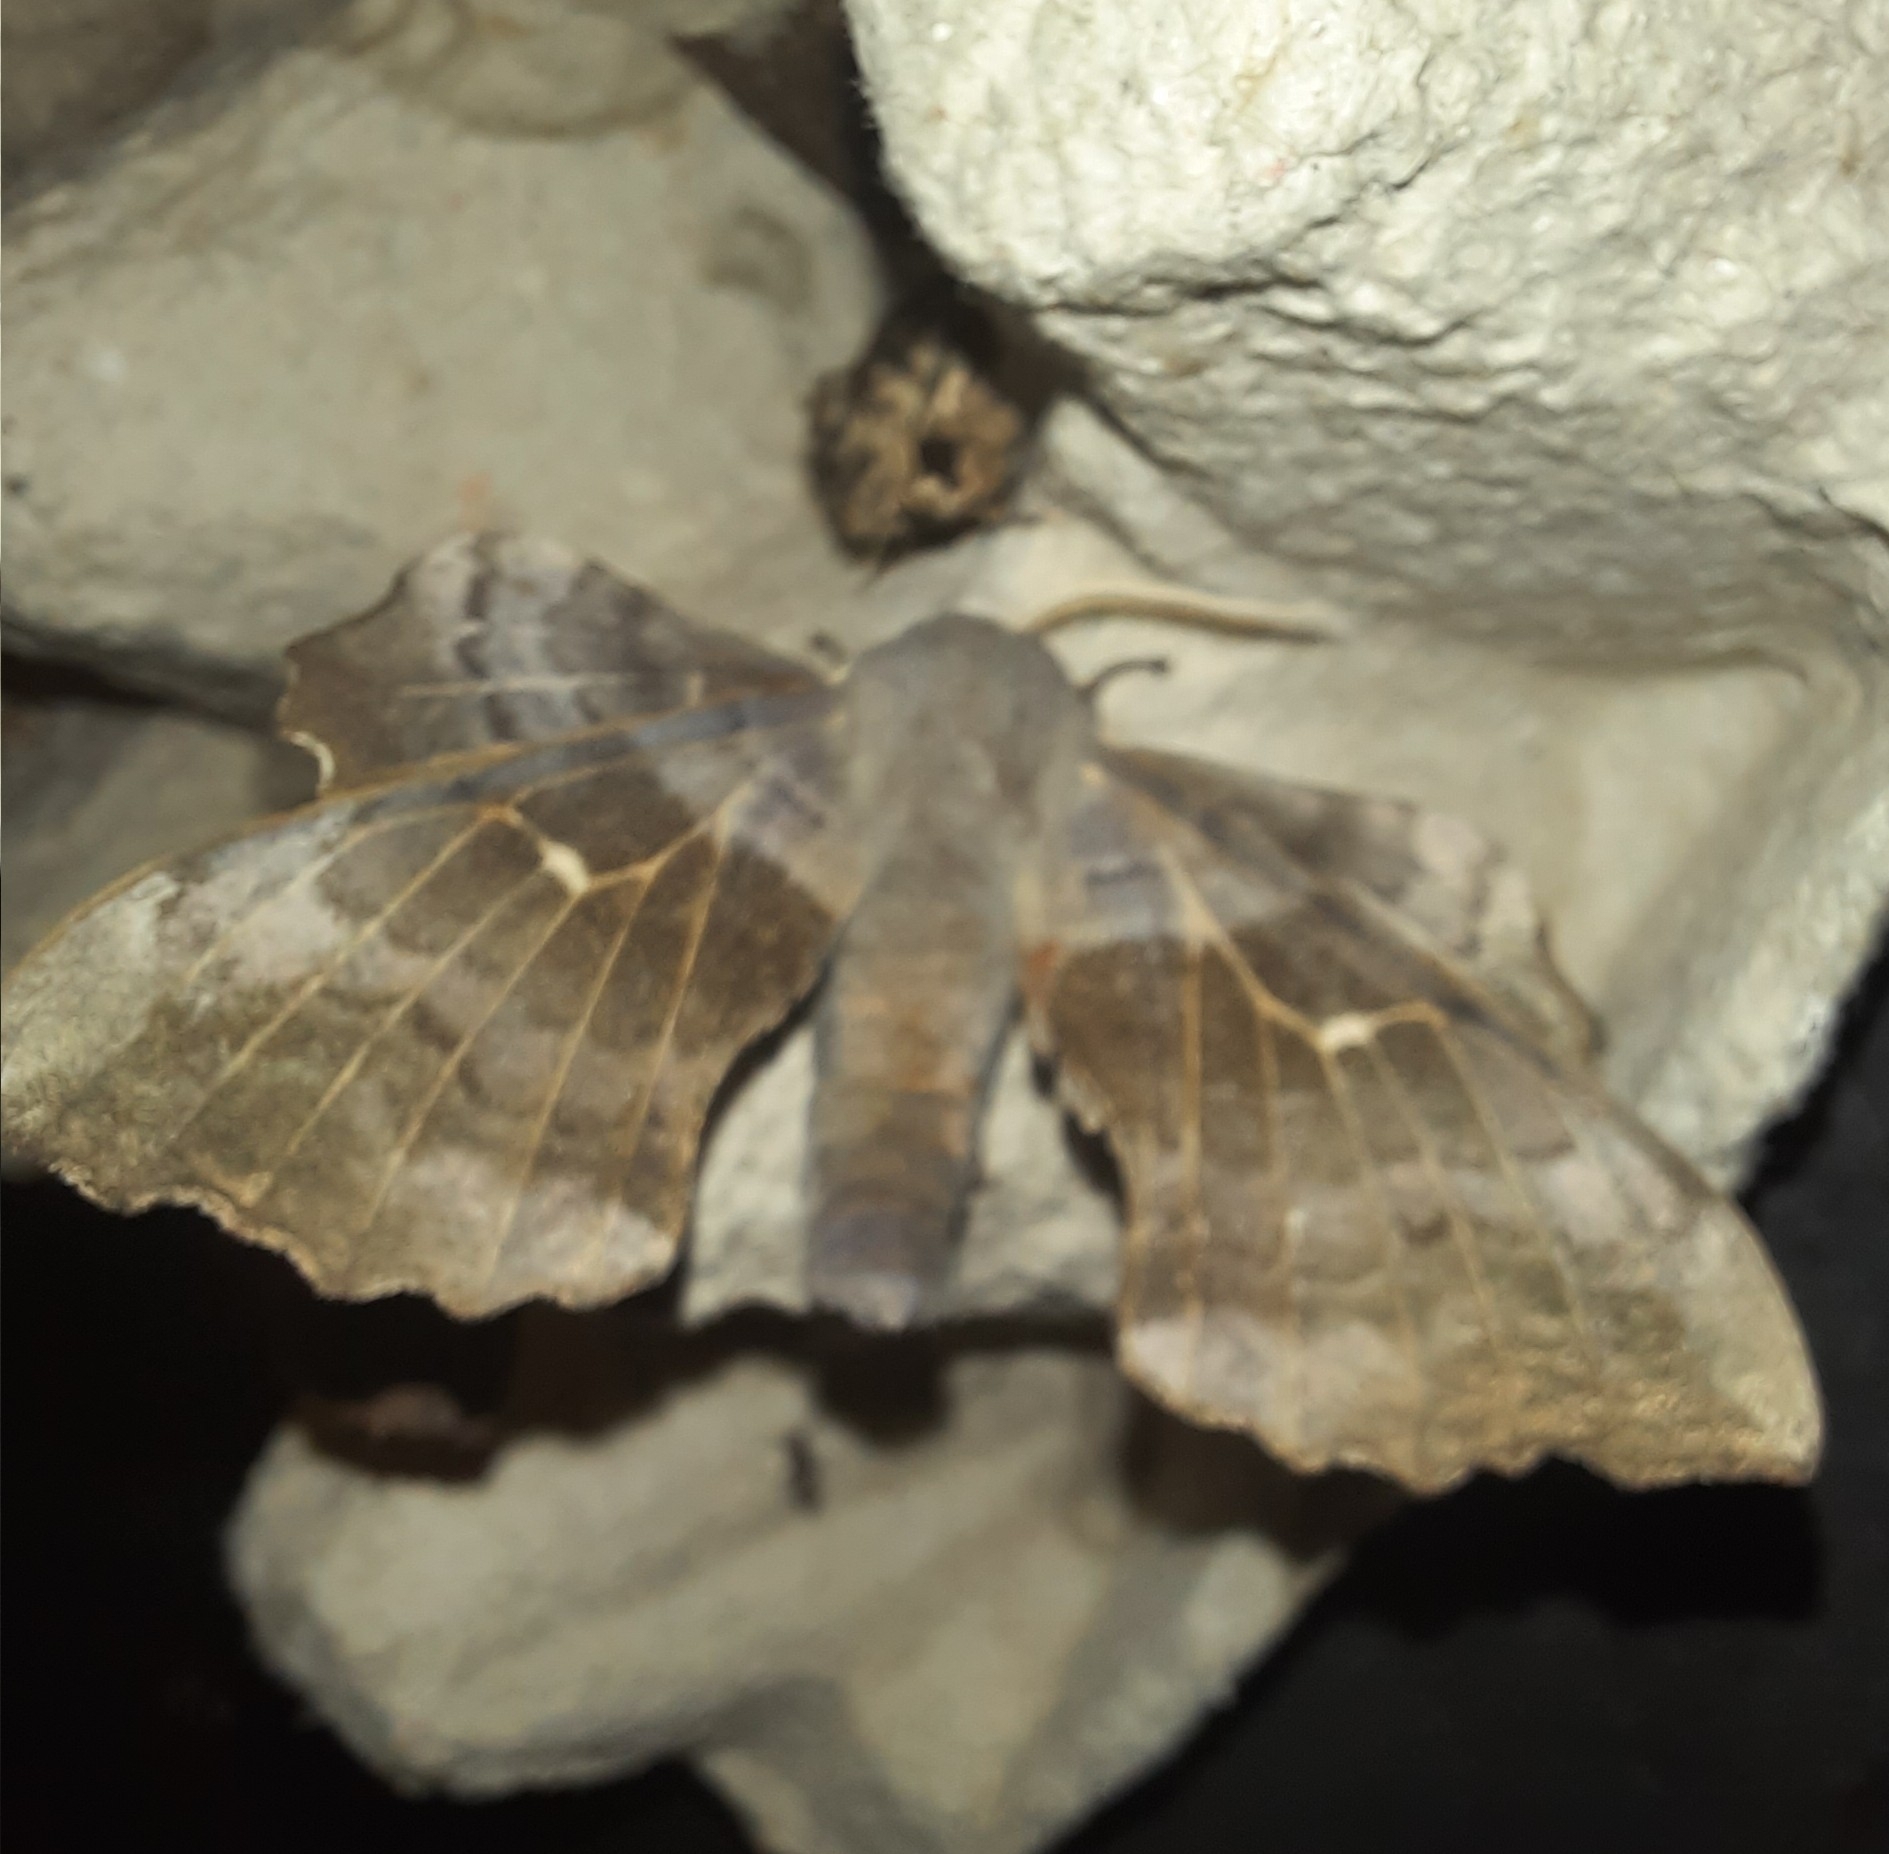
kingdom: Animalia
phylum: Arthropoda
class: Insecta
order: Lepidoptera
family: Sphingidae
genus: Laothoe
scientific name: Laothoe populi
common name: Poplar hawk-moth
